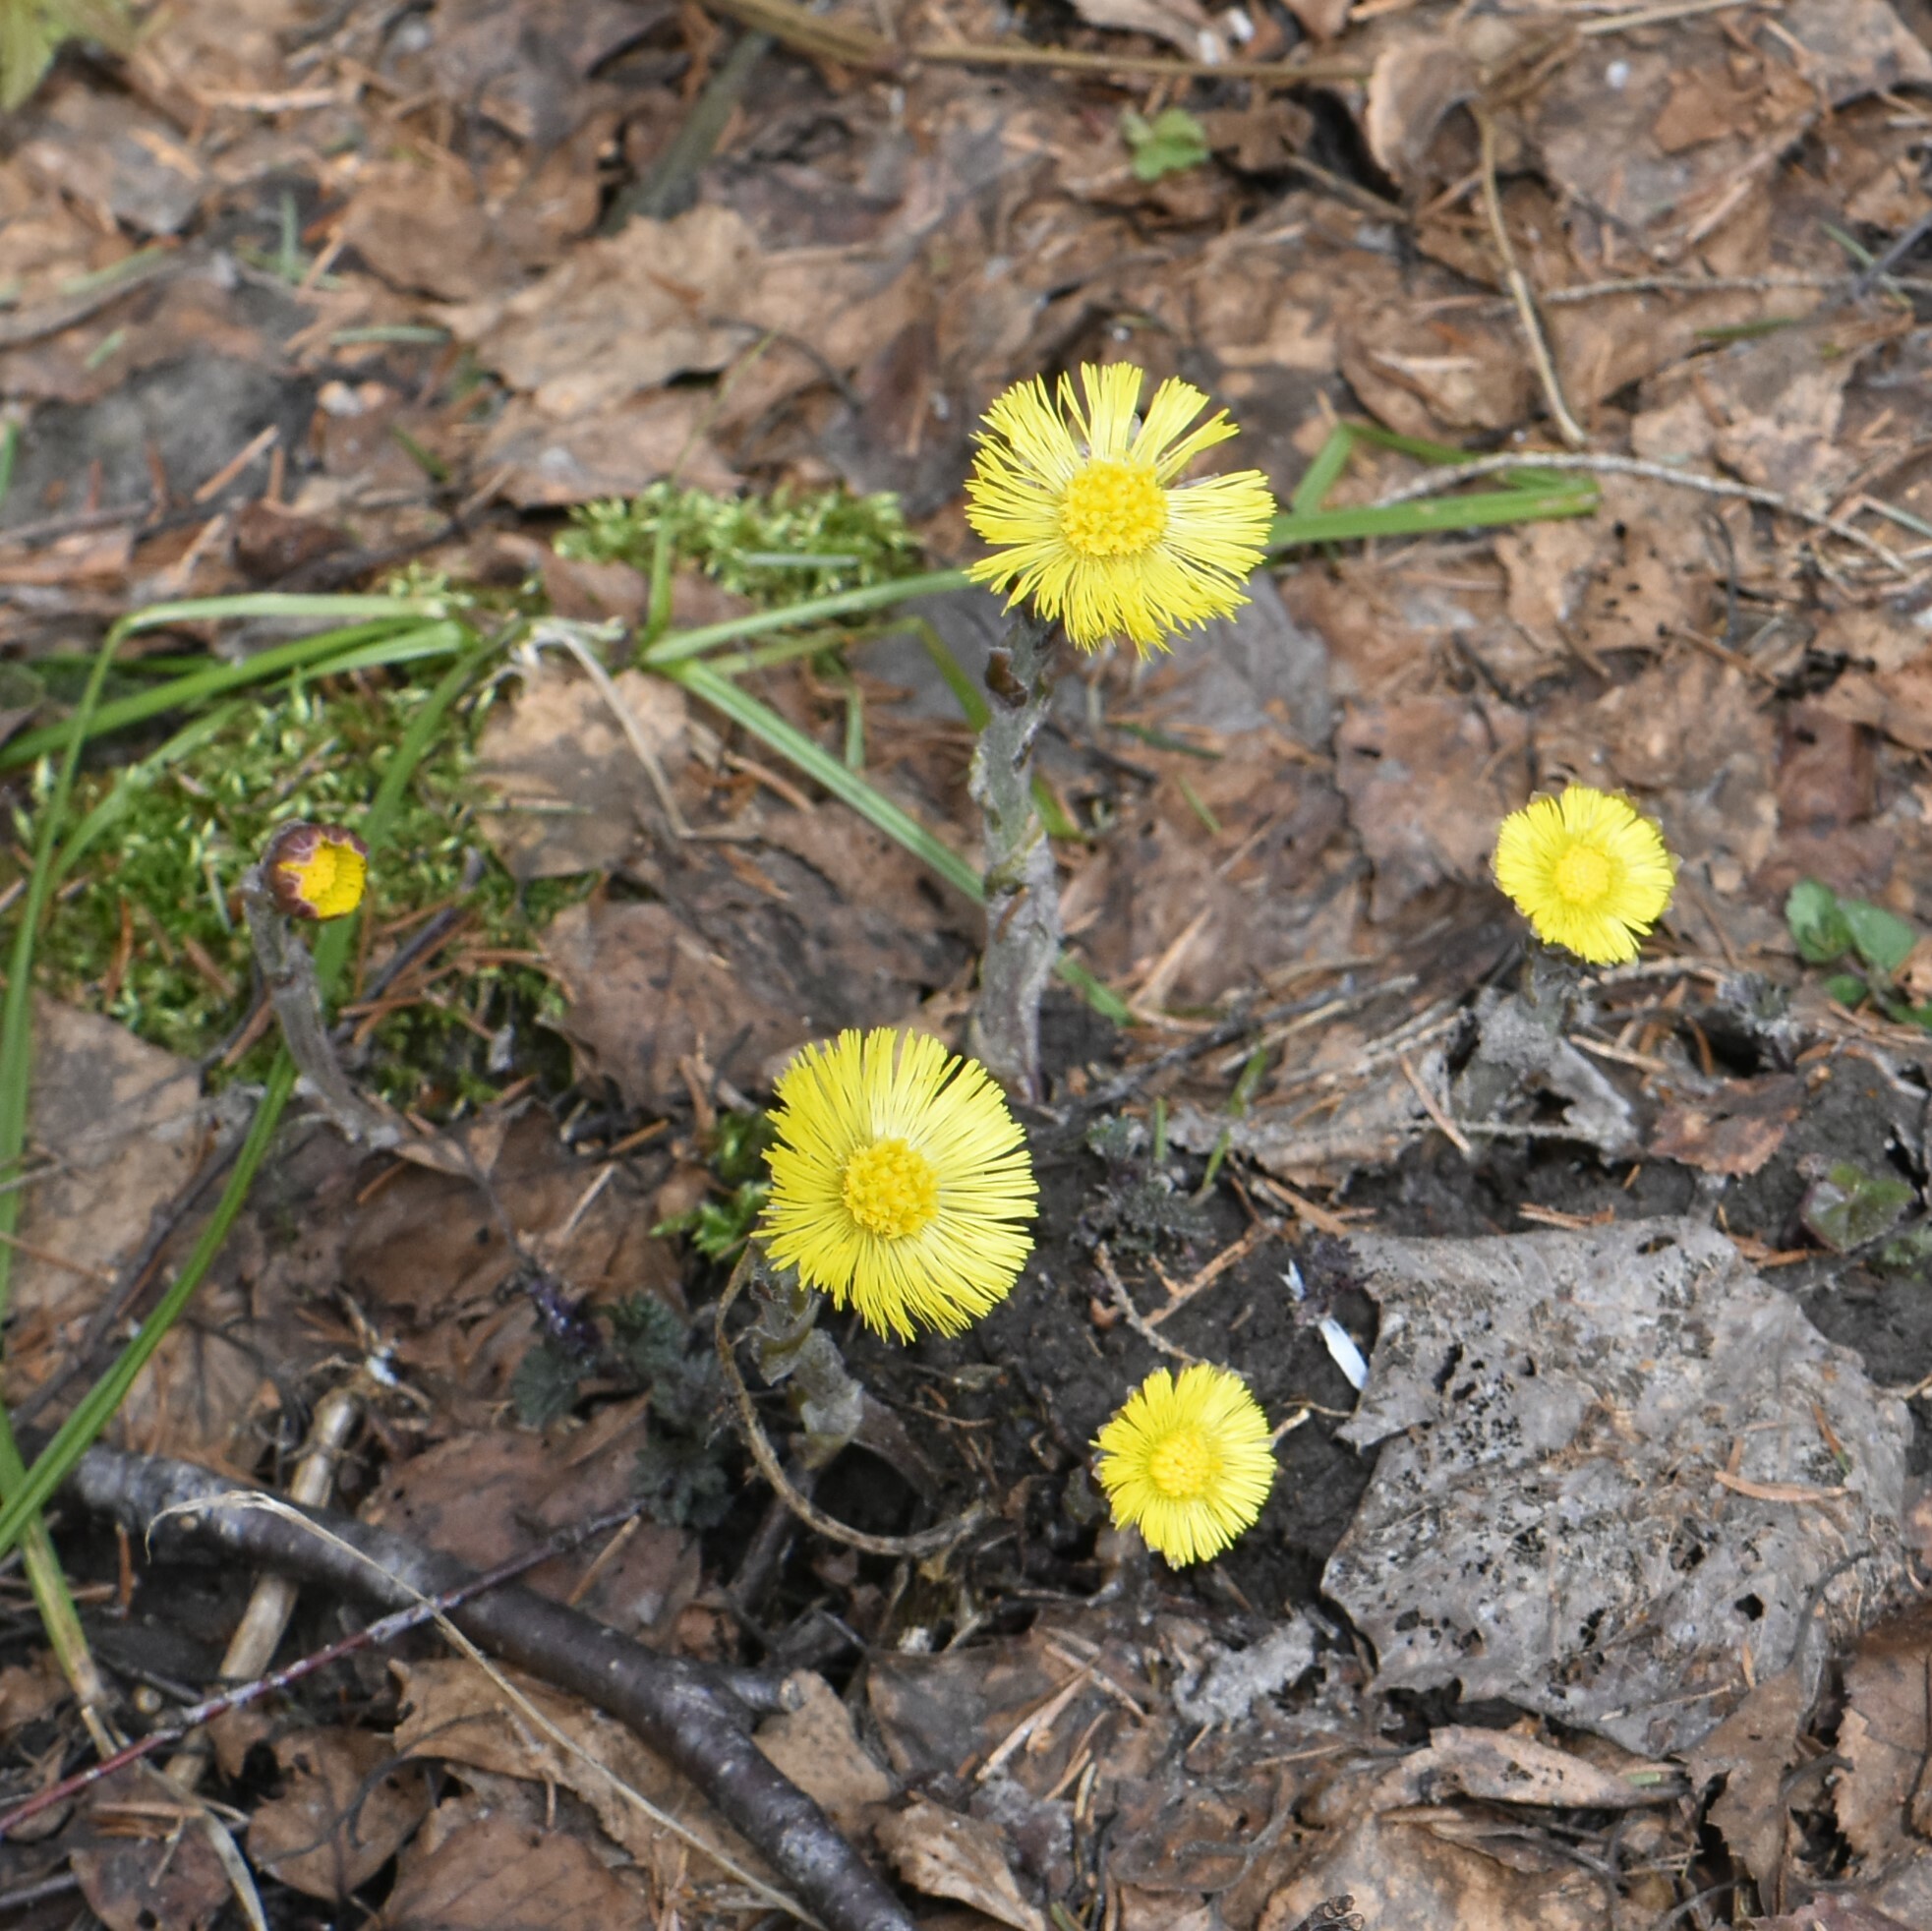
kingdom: Plantae
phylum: Tracheophyta
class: Magnoliopsida
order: Asterales
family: Asteraceae
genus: Tussilago
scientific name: Tussilago farfara
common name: Coltsfoot
